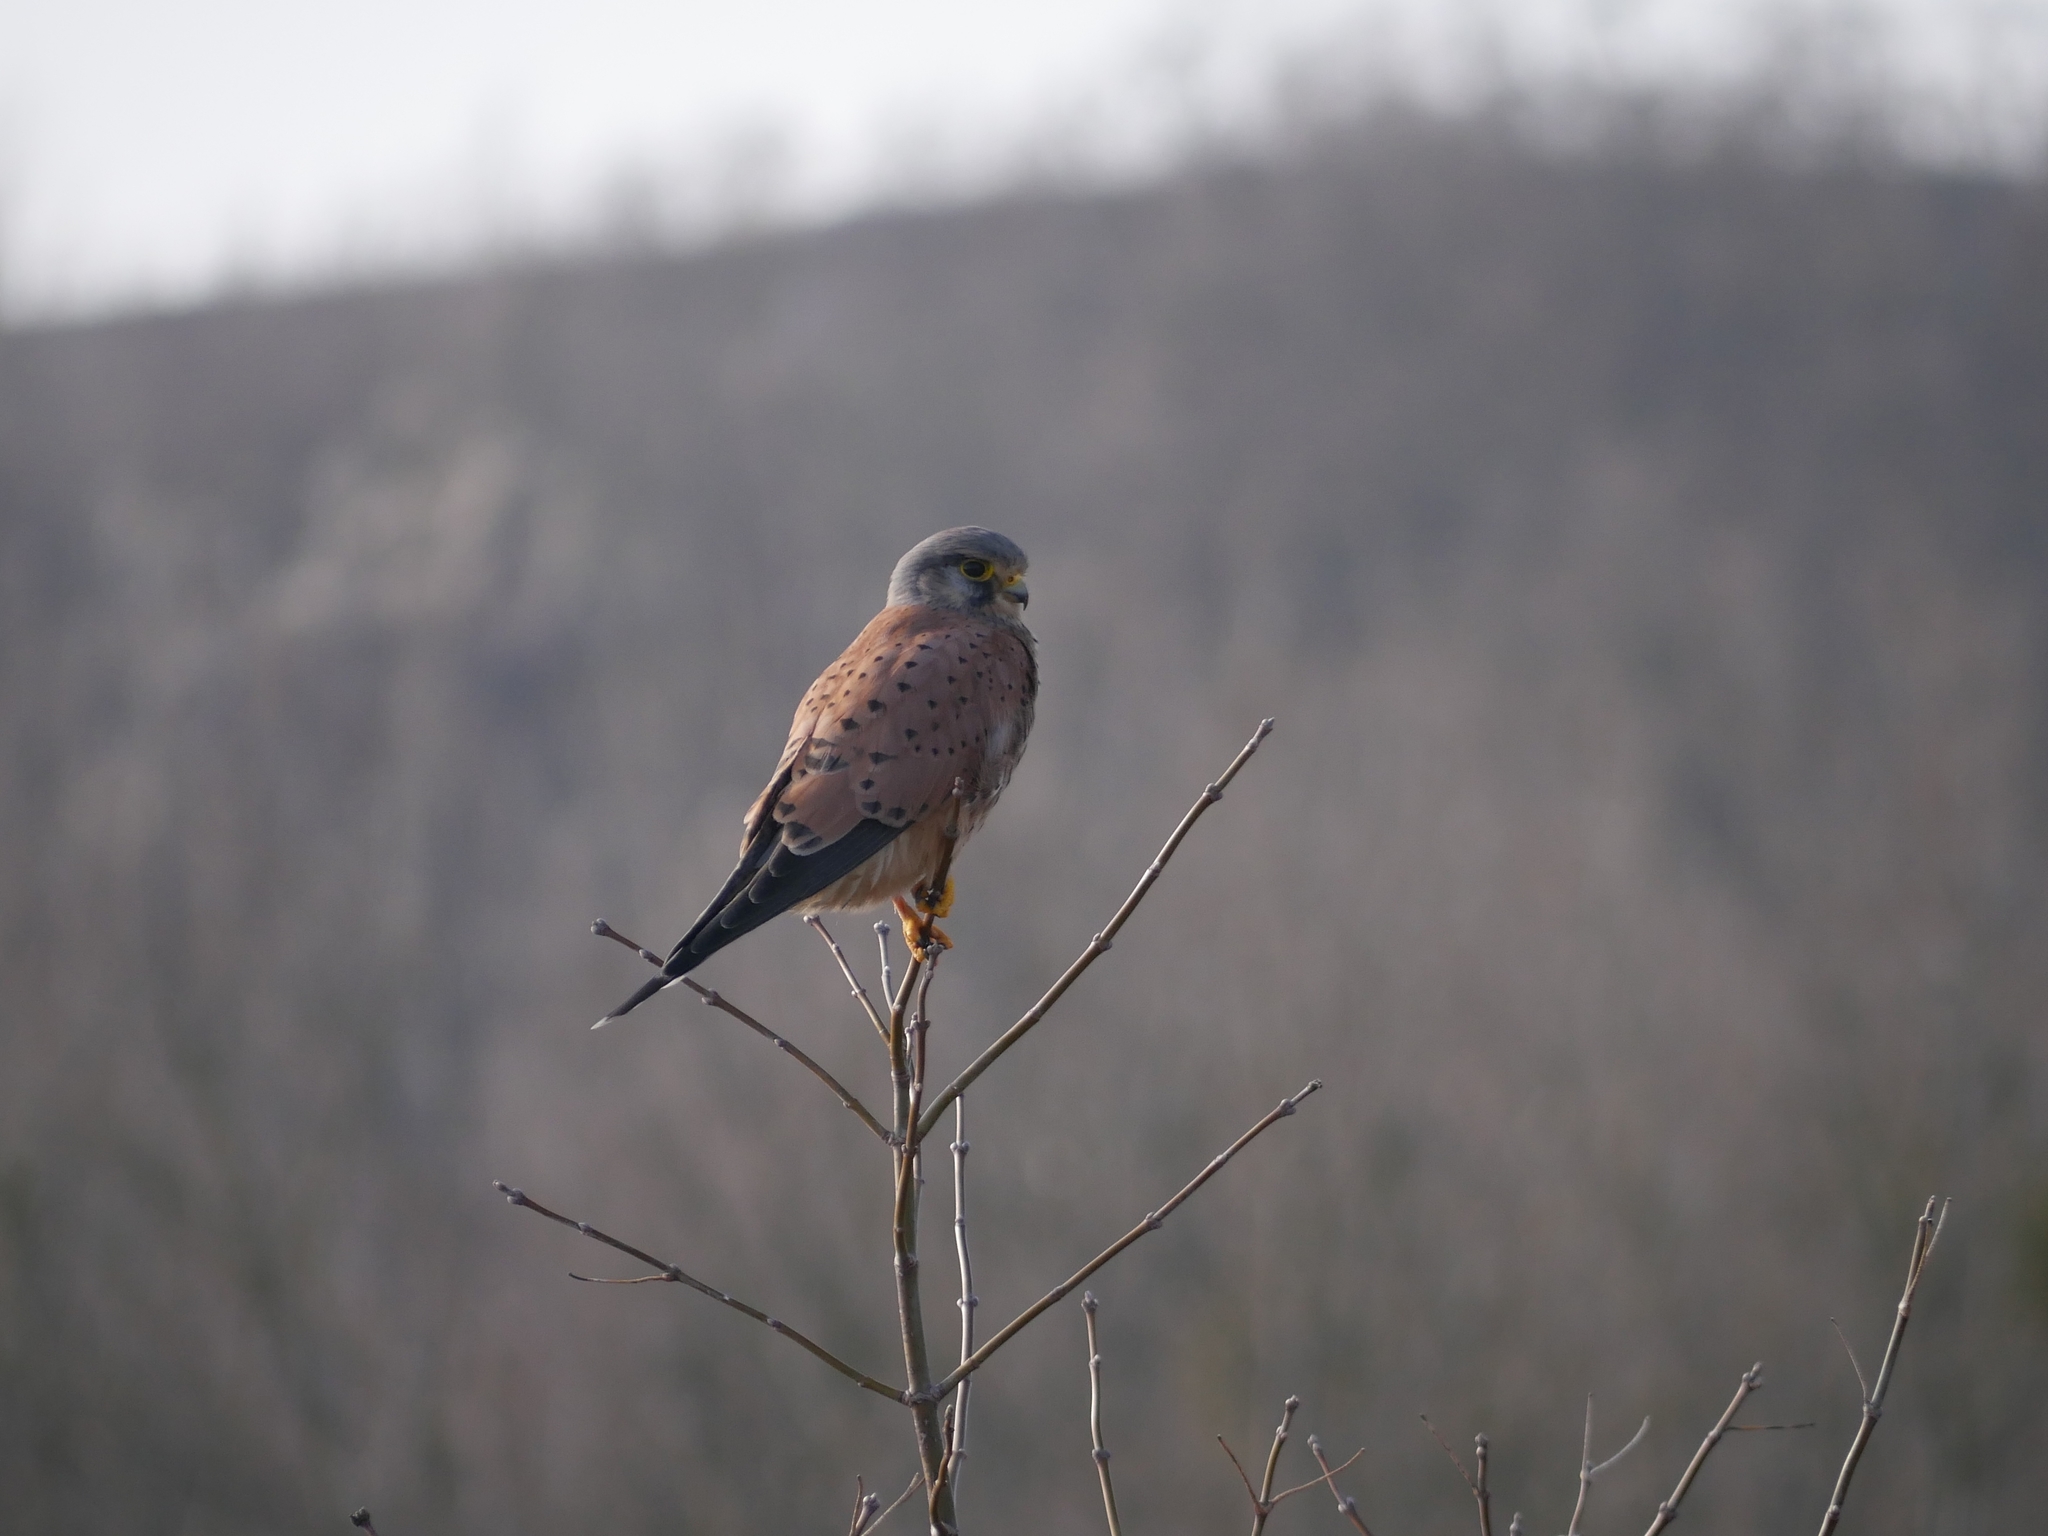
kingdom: Animalia
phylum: Chordata
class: Aves
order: Falconiformes
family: Falconidae
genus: Falco
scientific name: Falco tinnunculus
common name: Common kestrel
